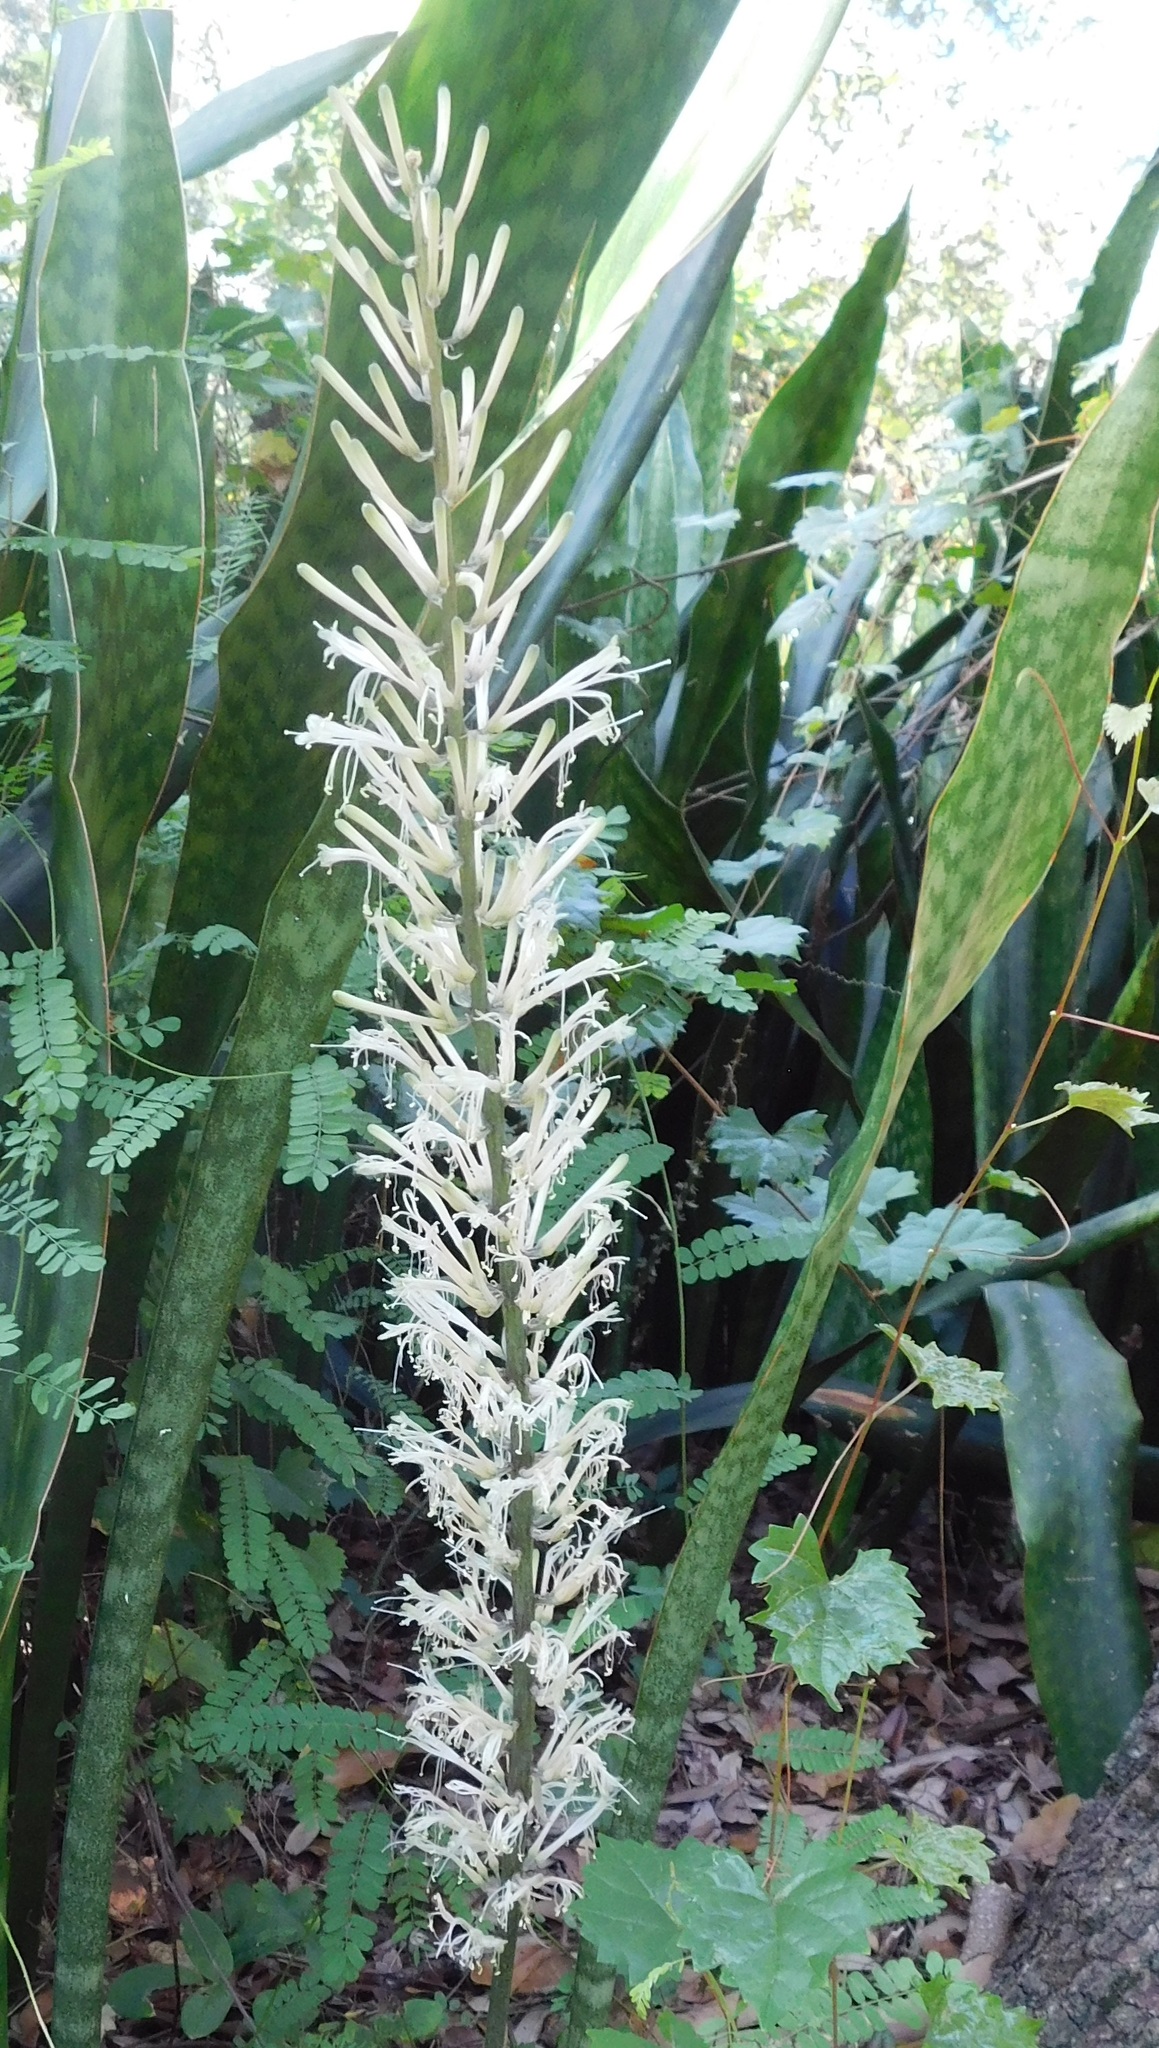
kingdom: Plantae
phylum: Tracheophyta
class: Liliopsida
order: Asparagales
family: Asparagaceae
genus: Dracaena
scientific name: Dracaena hyacinthoides
